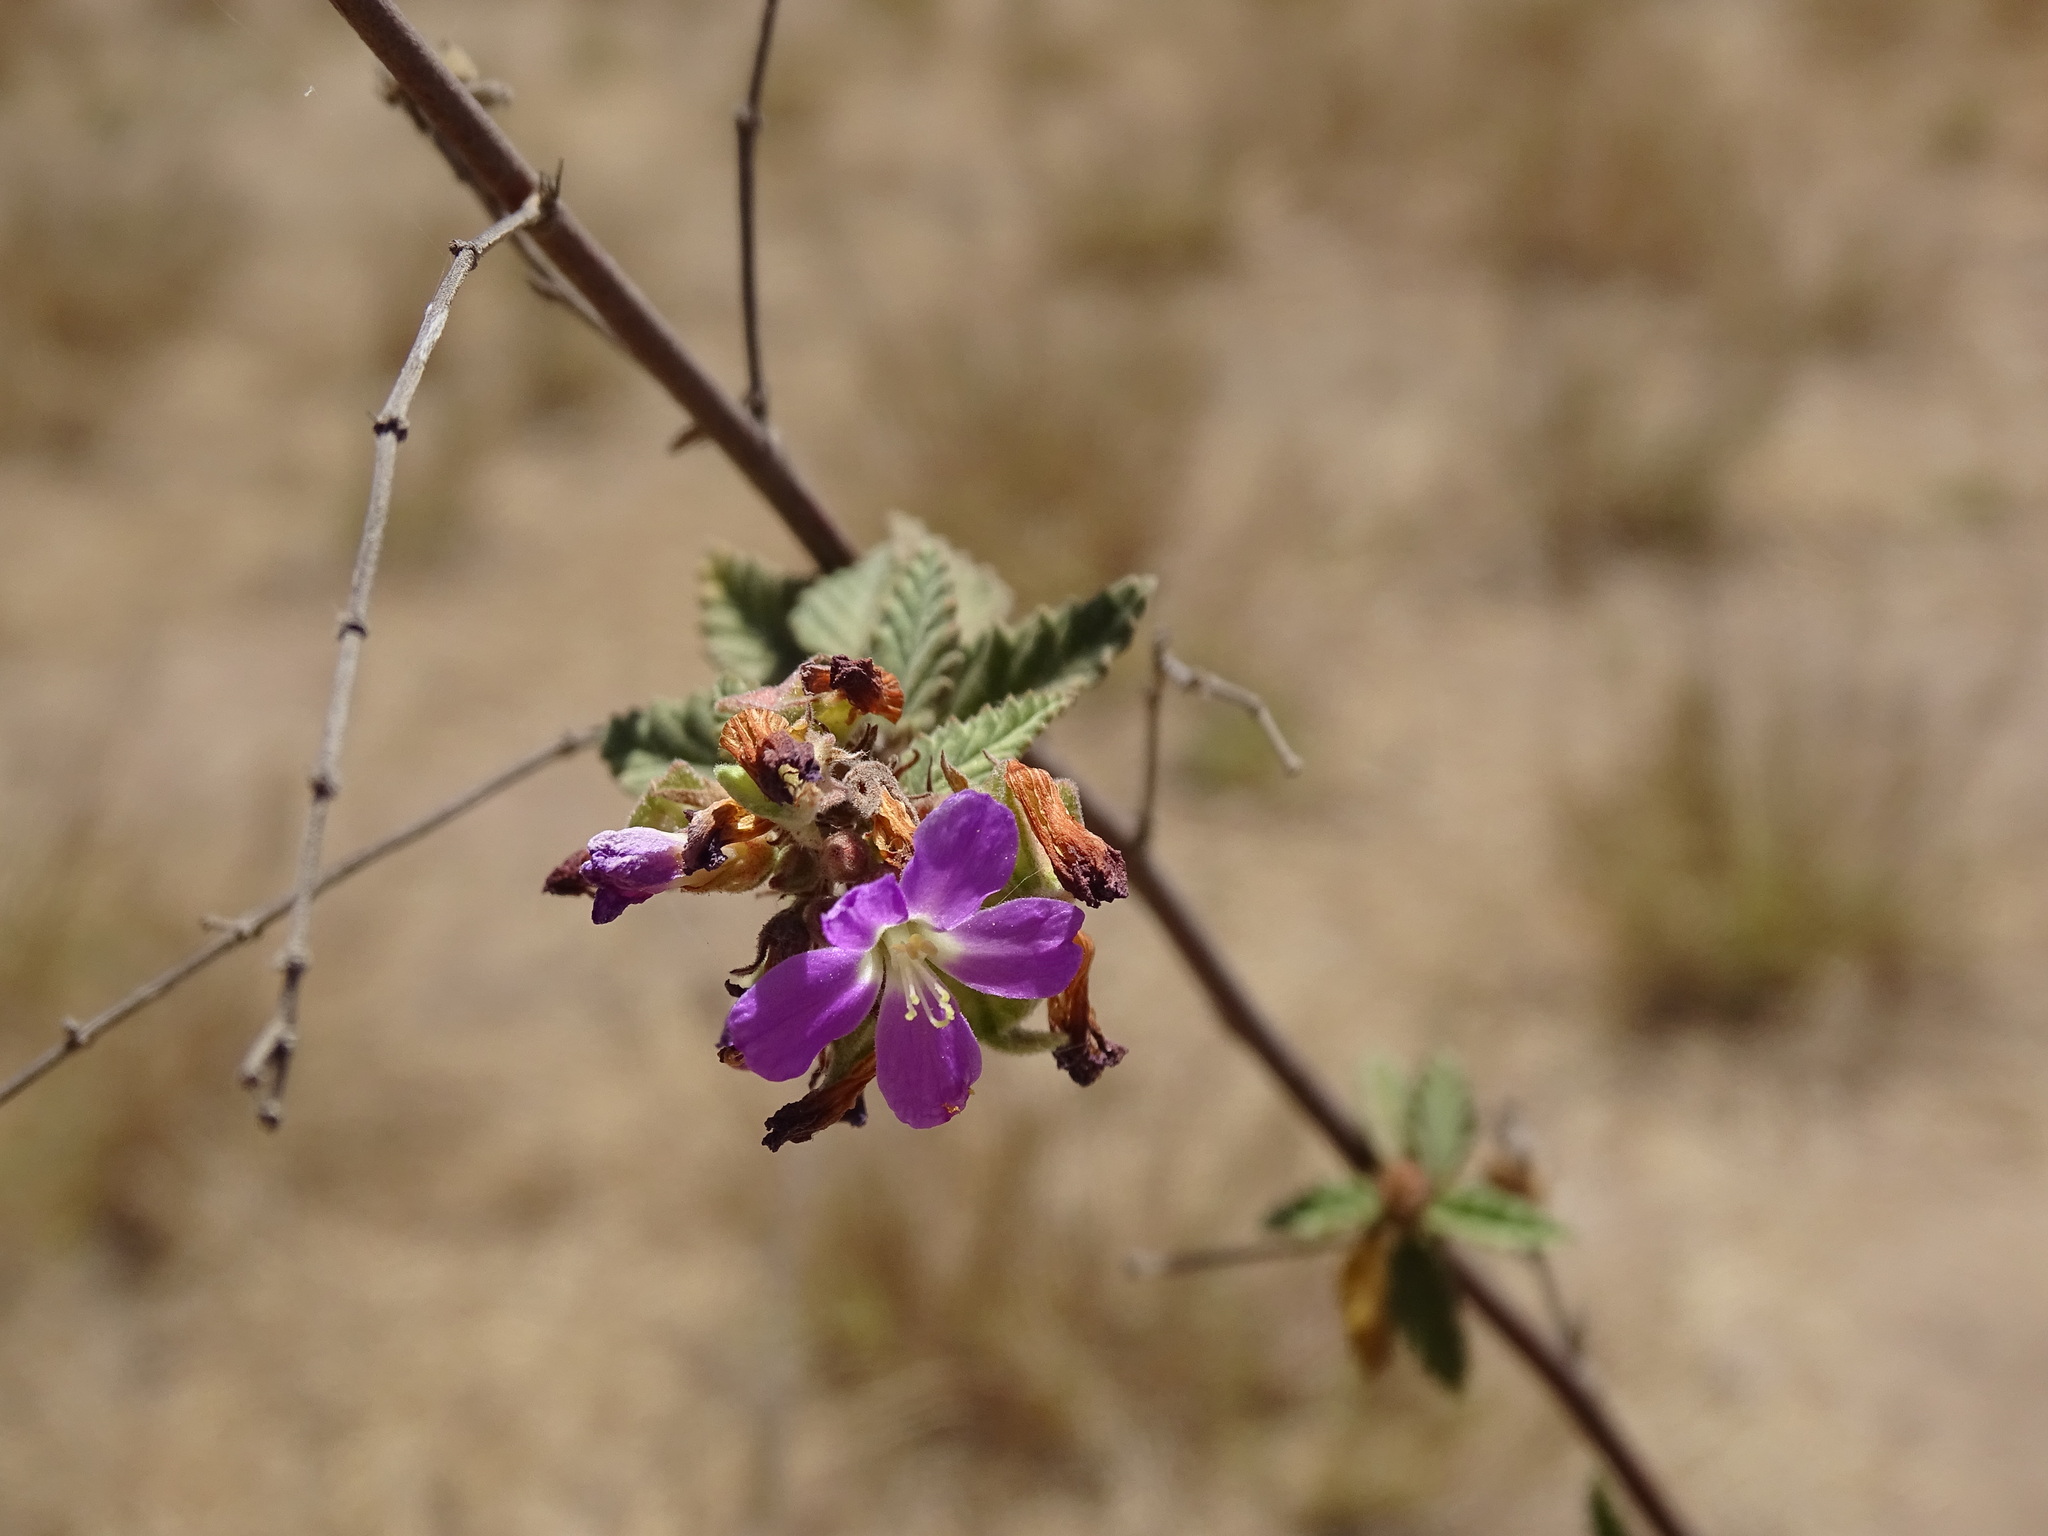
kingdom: Plantae
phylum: Tracheophyta
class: Magnoliopsida
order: Malvales
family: Malvaceae
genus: Melochia
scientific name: Melochia tomentosa
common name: Black torch
